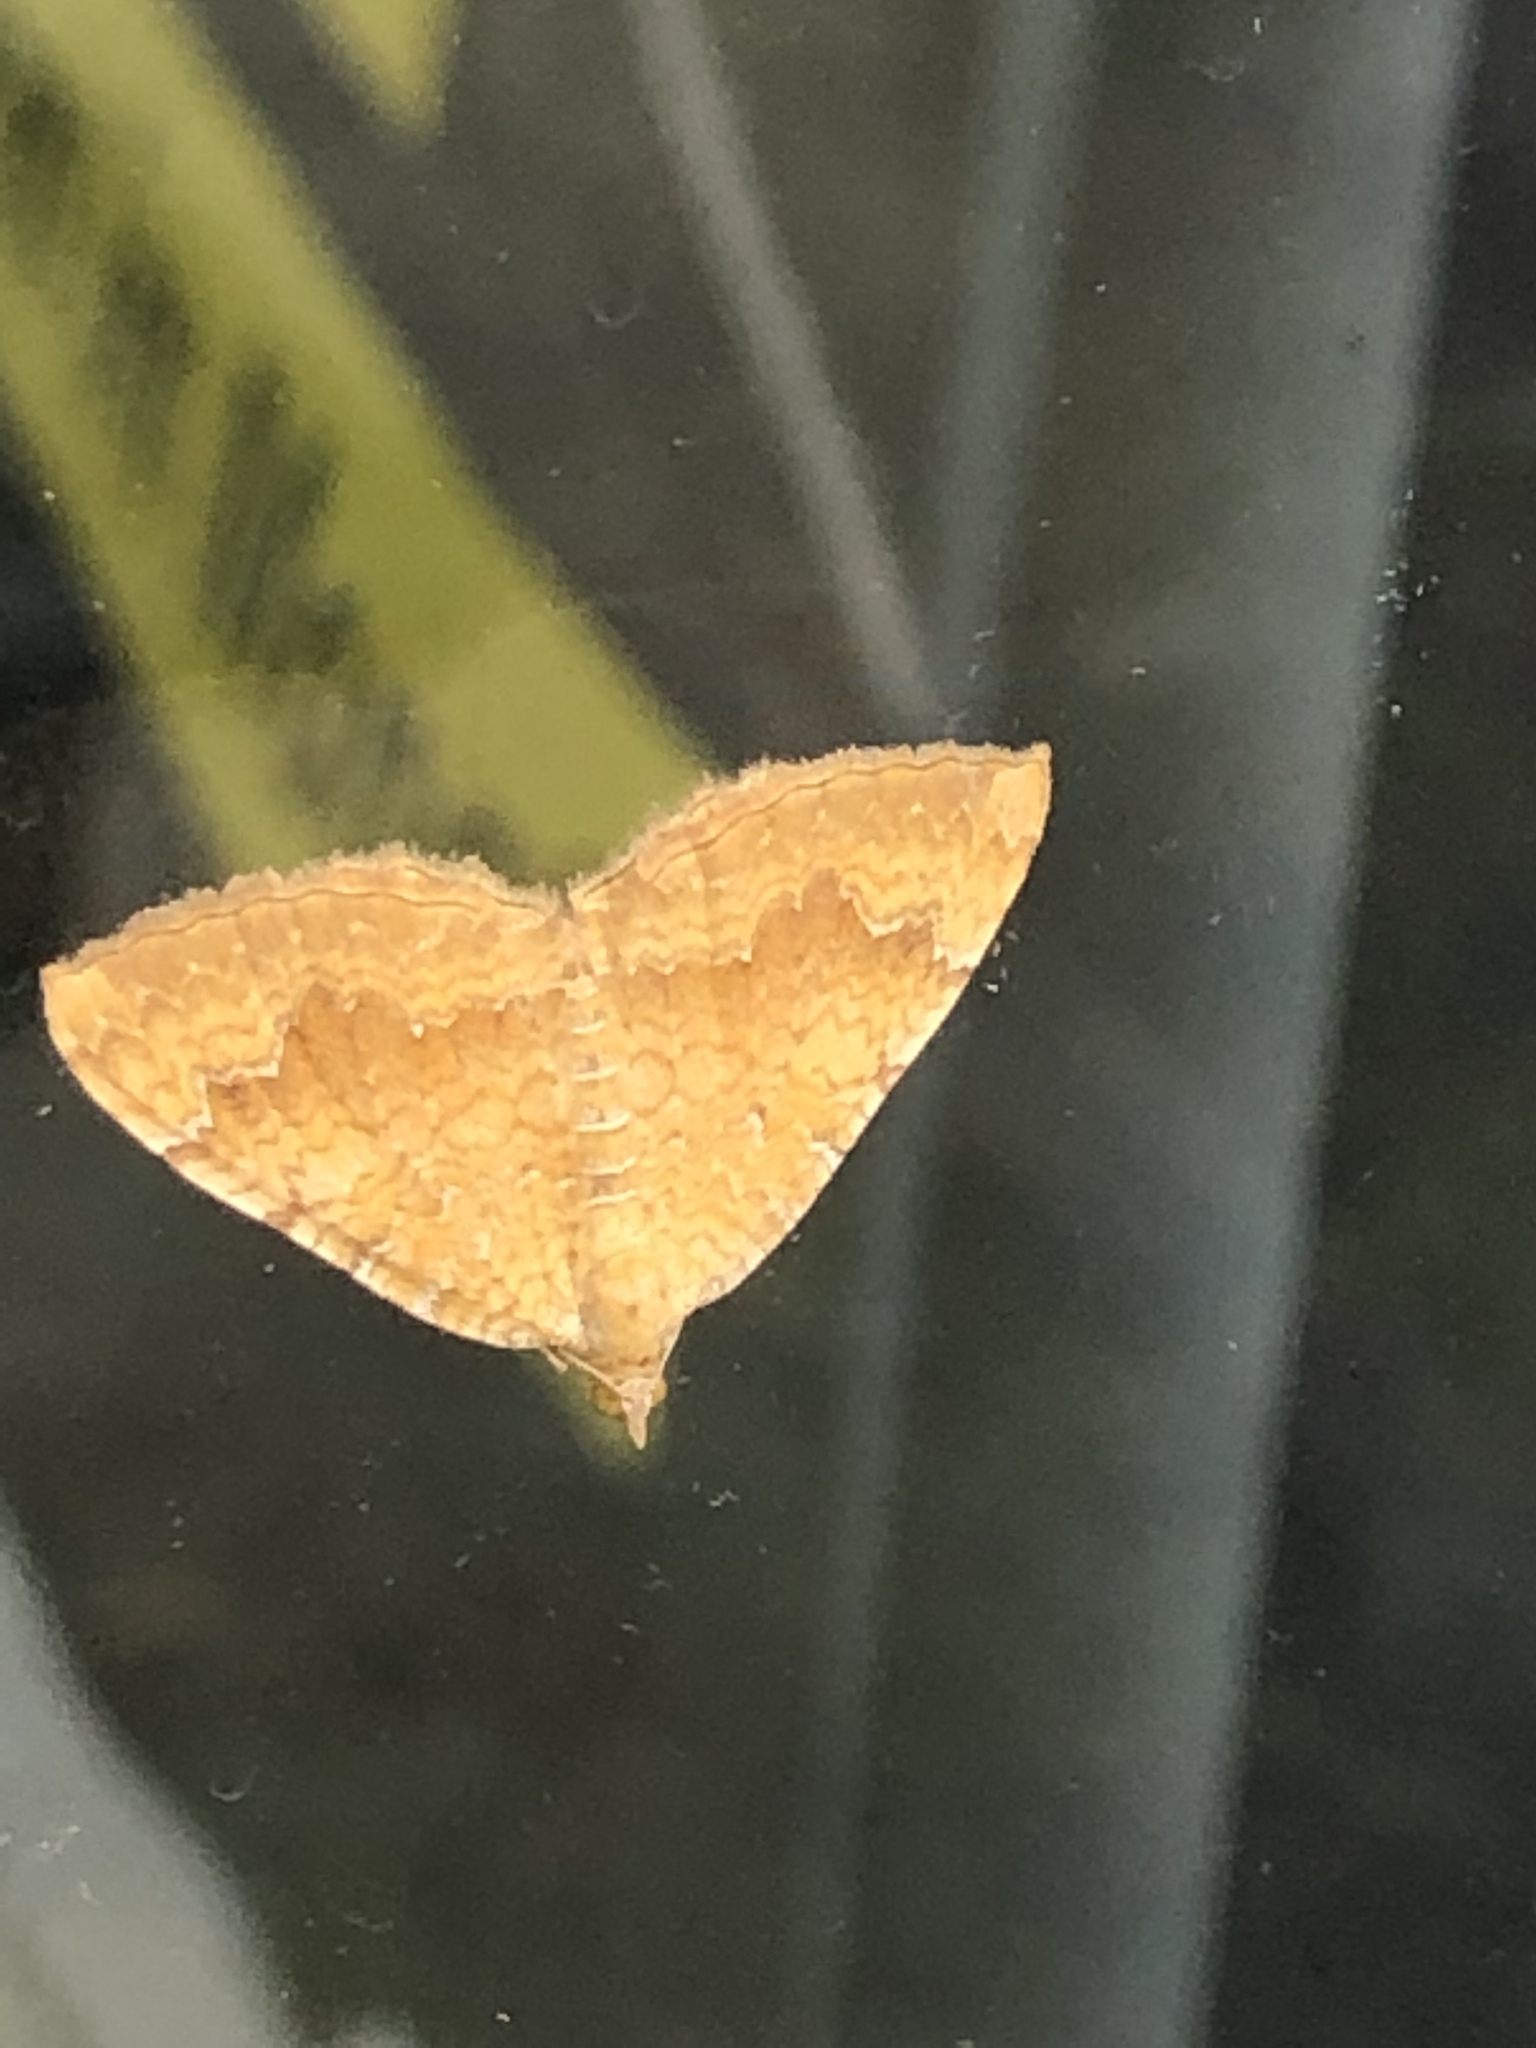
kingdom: Animalia
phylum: Arthropoda
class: Insecta
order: Lepidoptera
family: Geometridae
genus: Camptogramma
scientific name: Camptogramma bilineata
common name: Yellow shell
